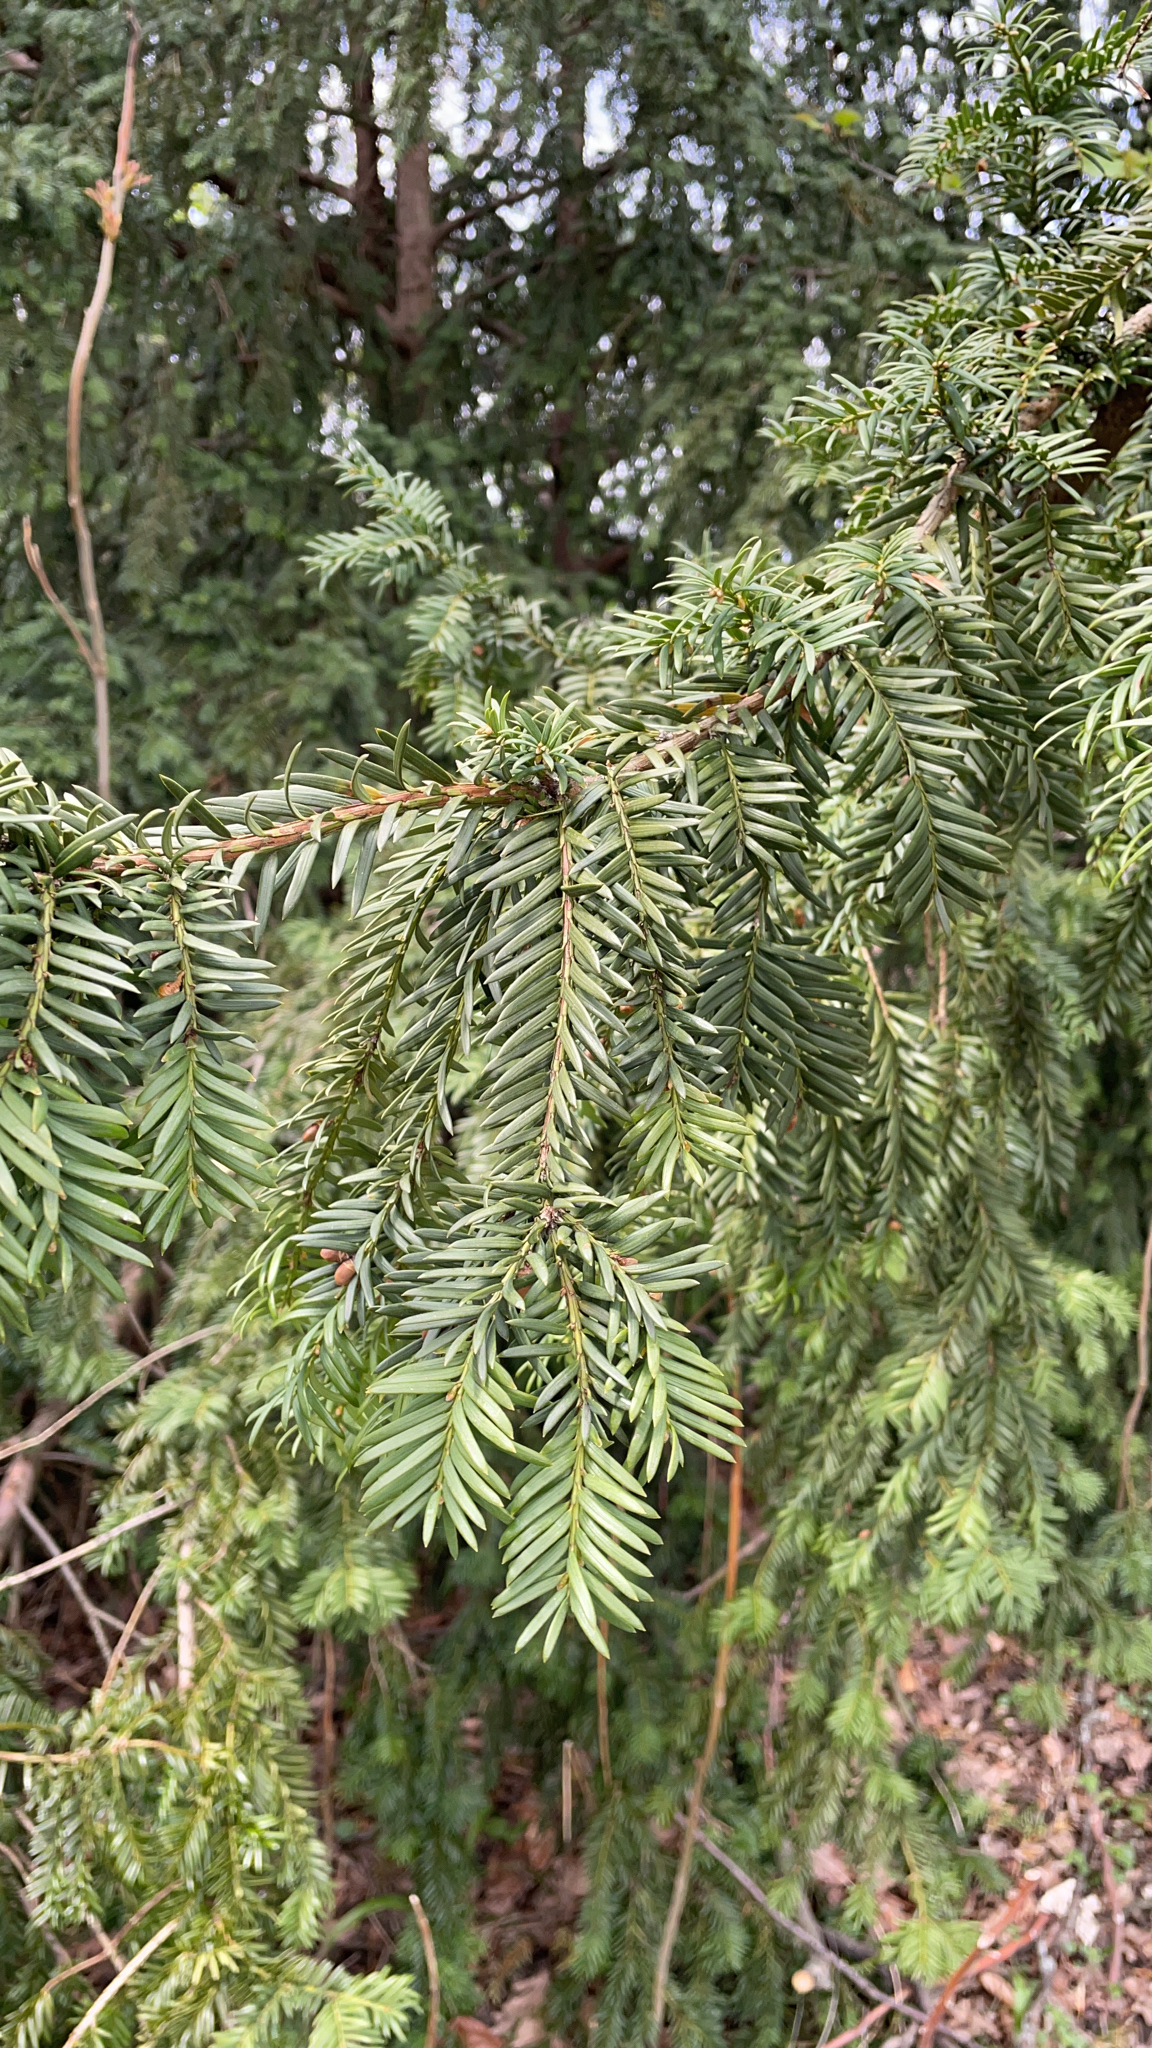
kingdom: Plantae
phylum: Tracheophyta
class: Pinopsida
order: Pinales
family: Taxaceae
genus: Taxus
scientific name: Taxus baccata
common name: Yew
